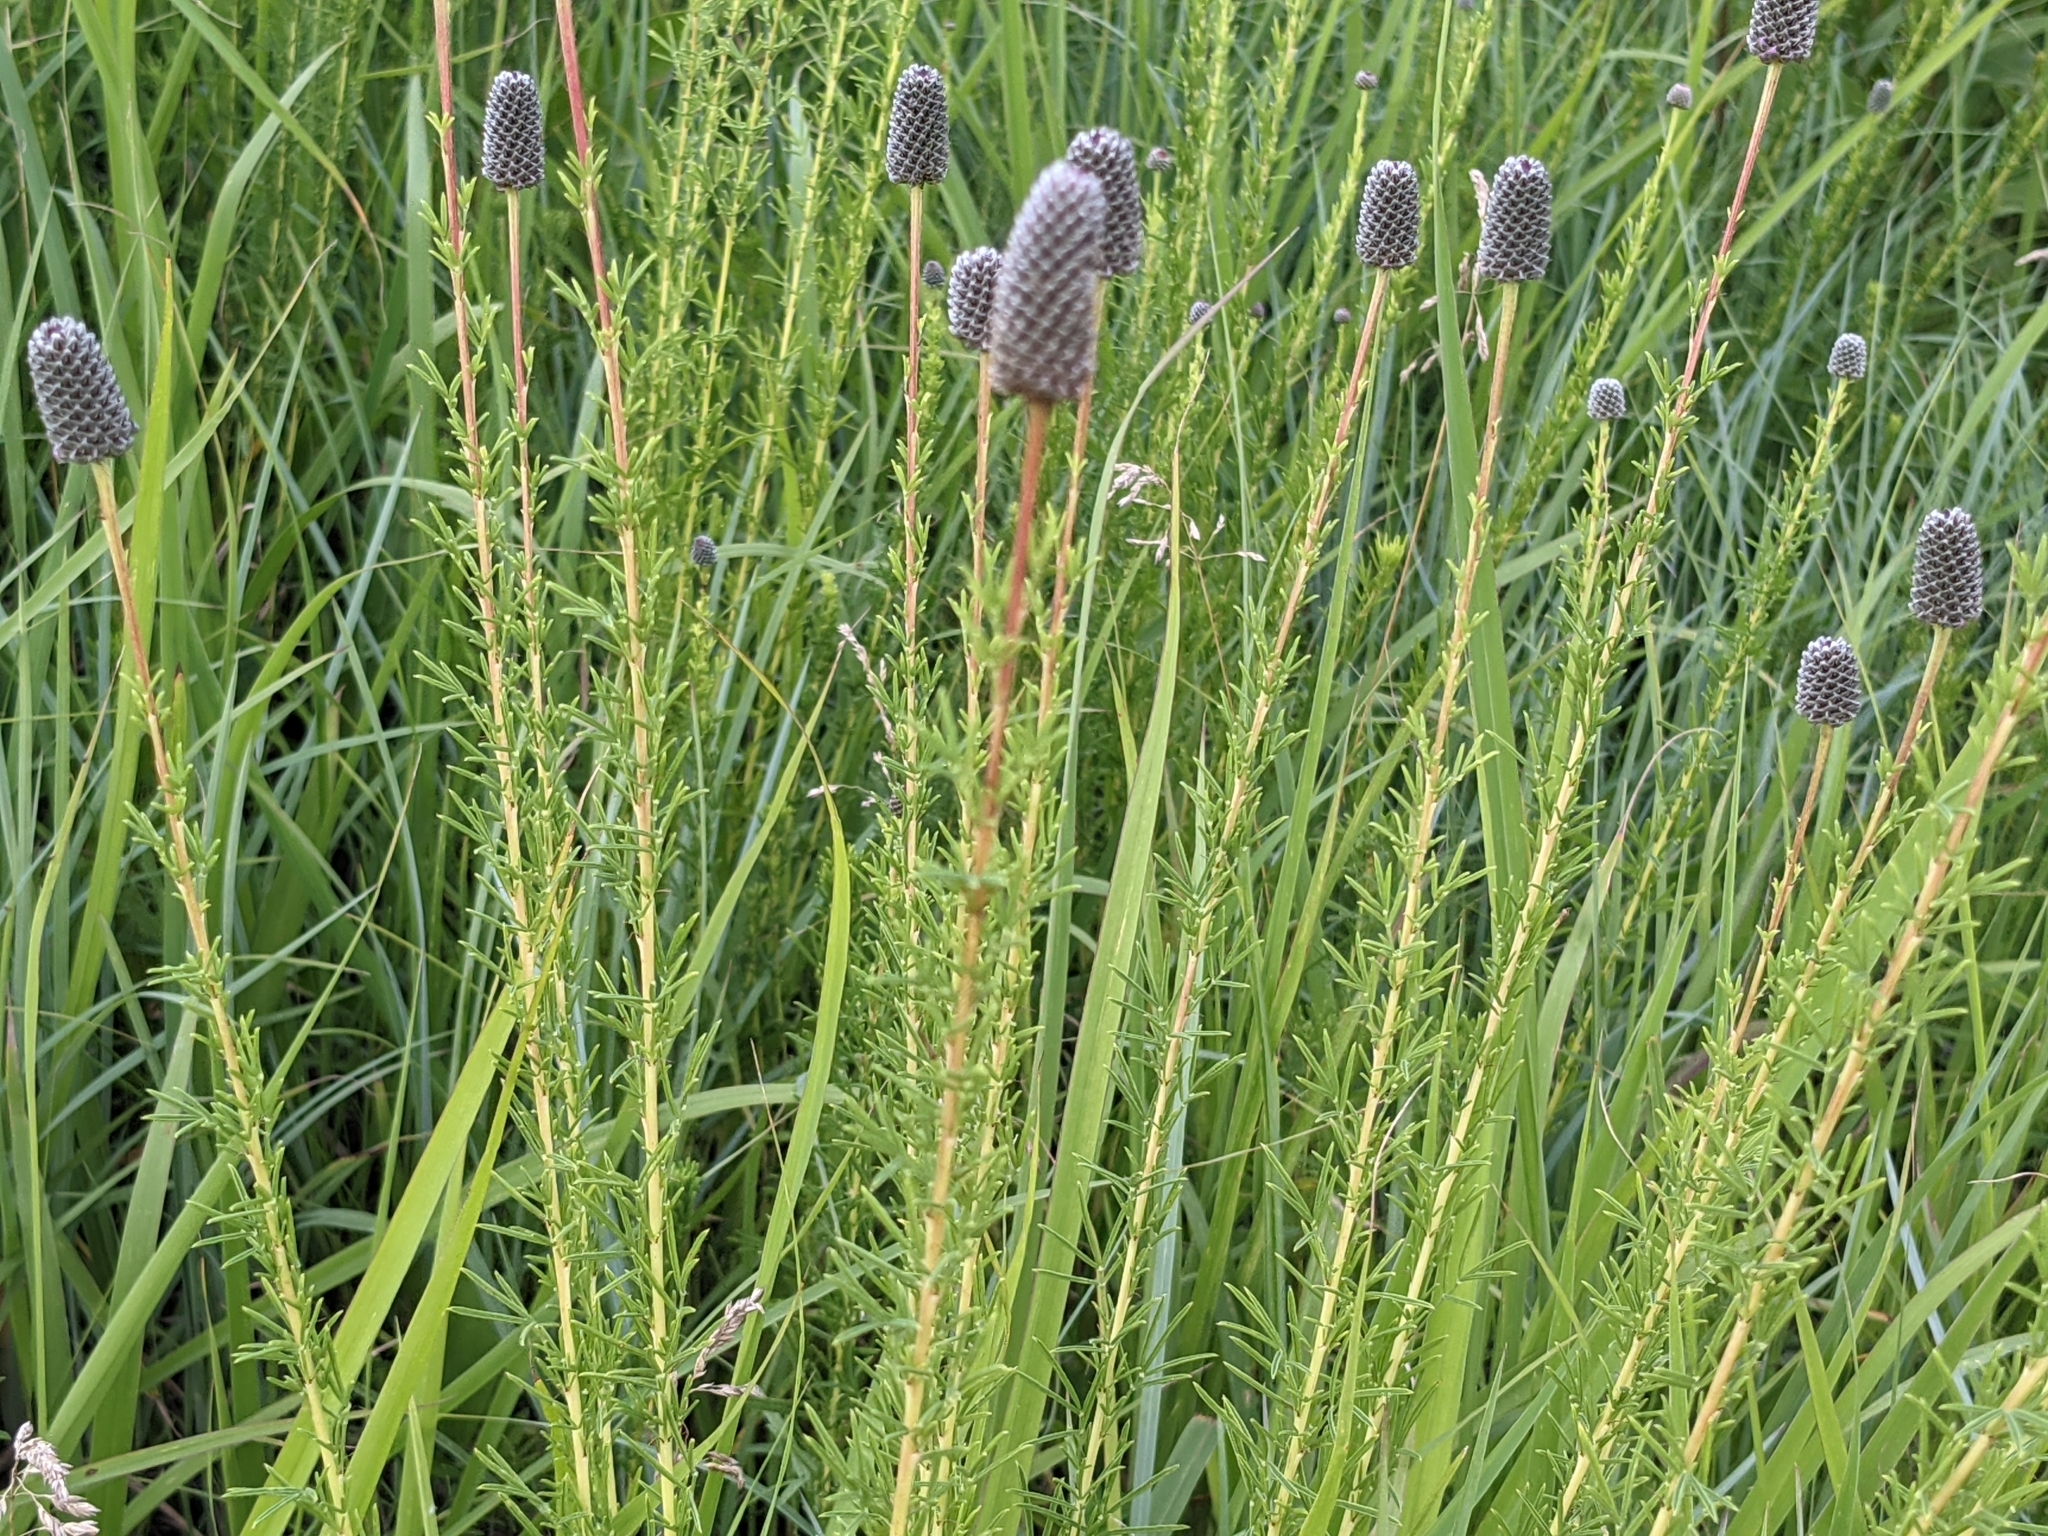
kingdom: Plantae
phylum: Tracheophyta
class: Magnoliopsida
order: Fabales
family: Fabaceae
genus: Dalea
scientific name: Dalea purpurea
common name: Purple prairie-clover
